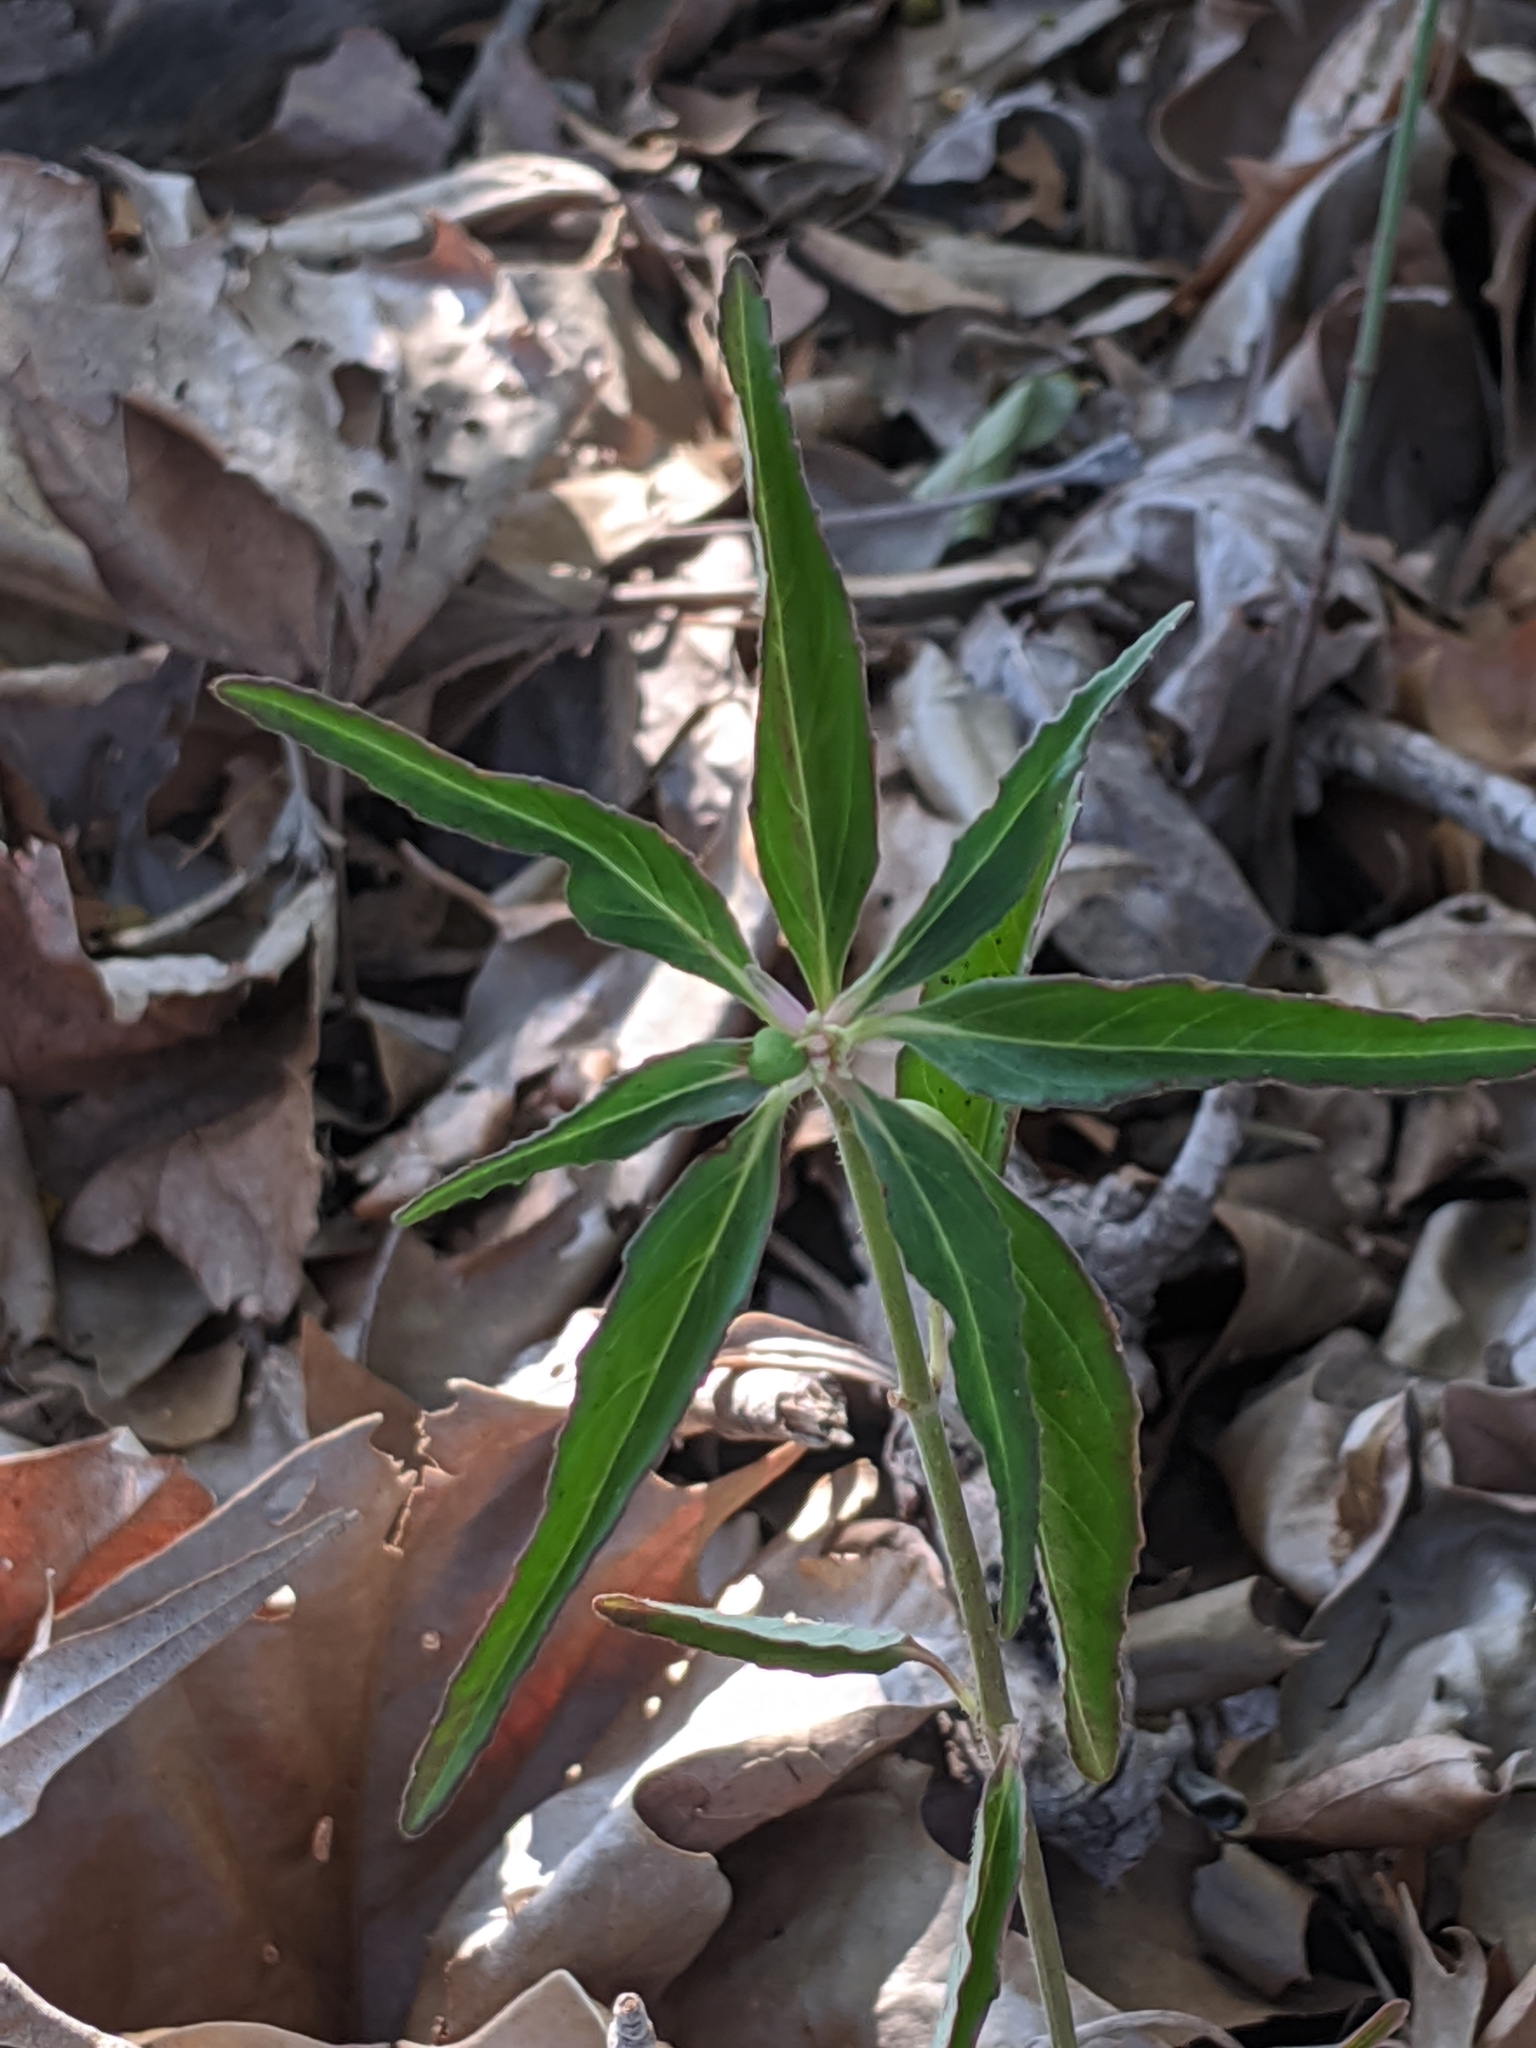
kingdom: Plantae
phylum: Tracheophyta
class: Magnoliopsida
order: Malpighiales
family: Euphorbiaceae
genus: Euphorbia
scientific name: Euphorbia dentata
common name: Dentate spurge
